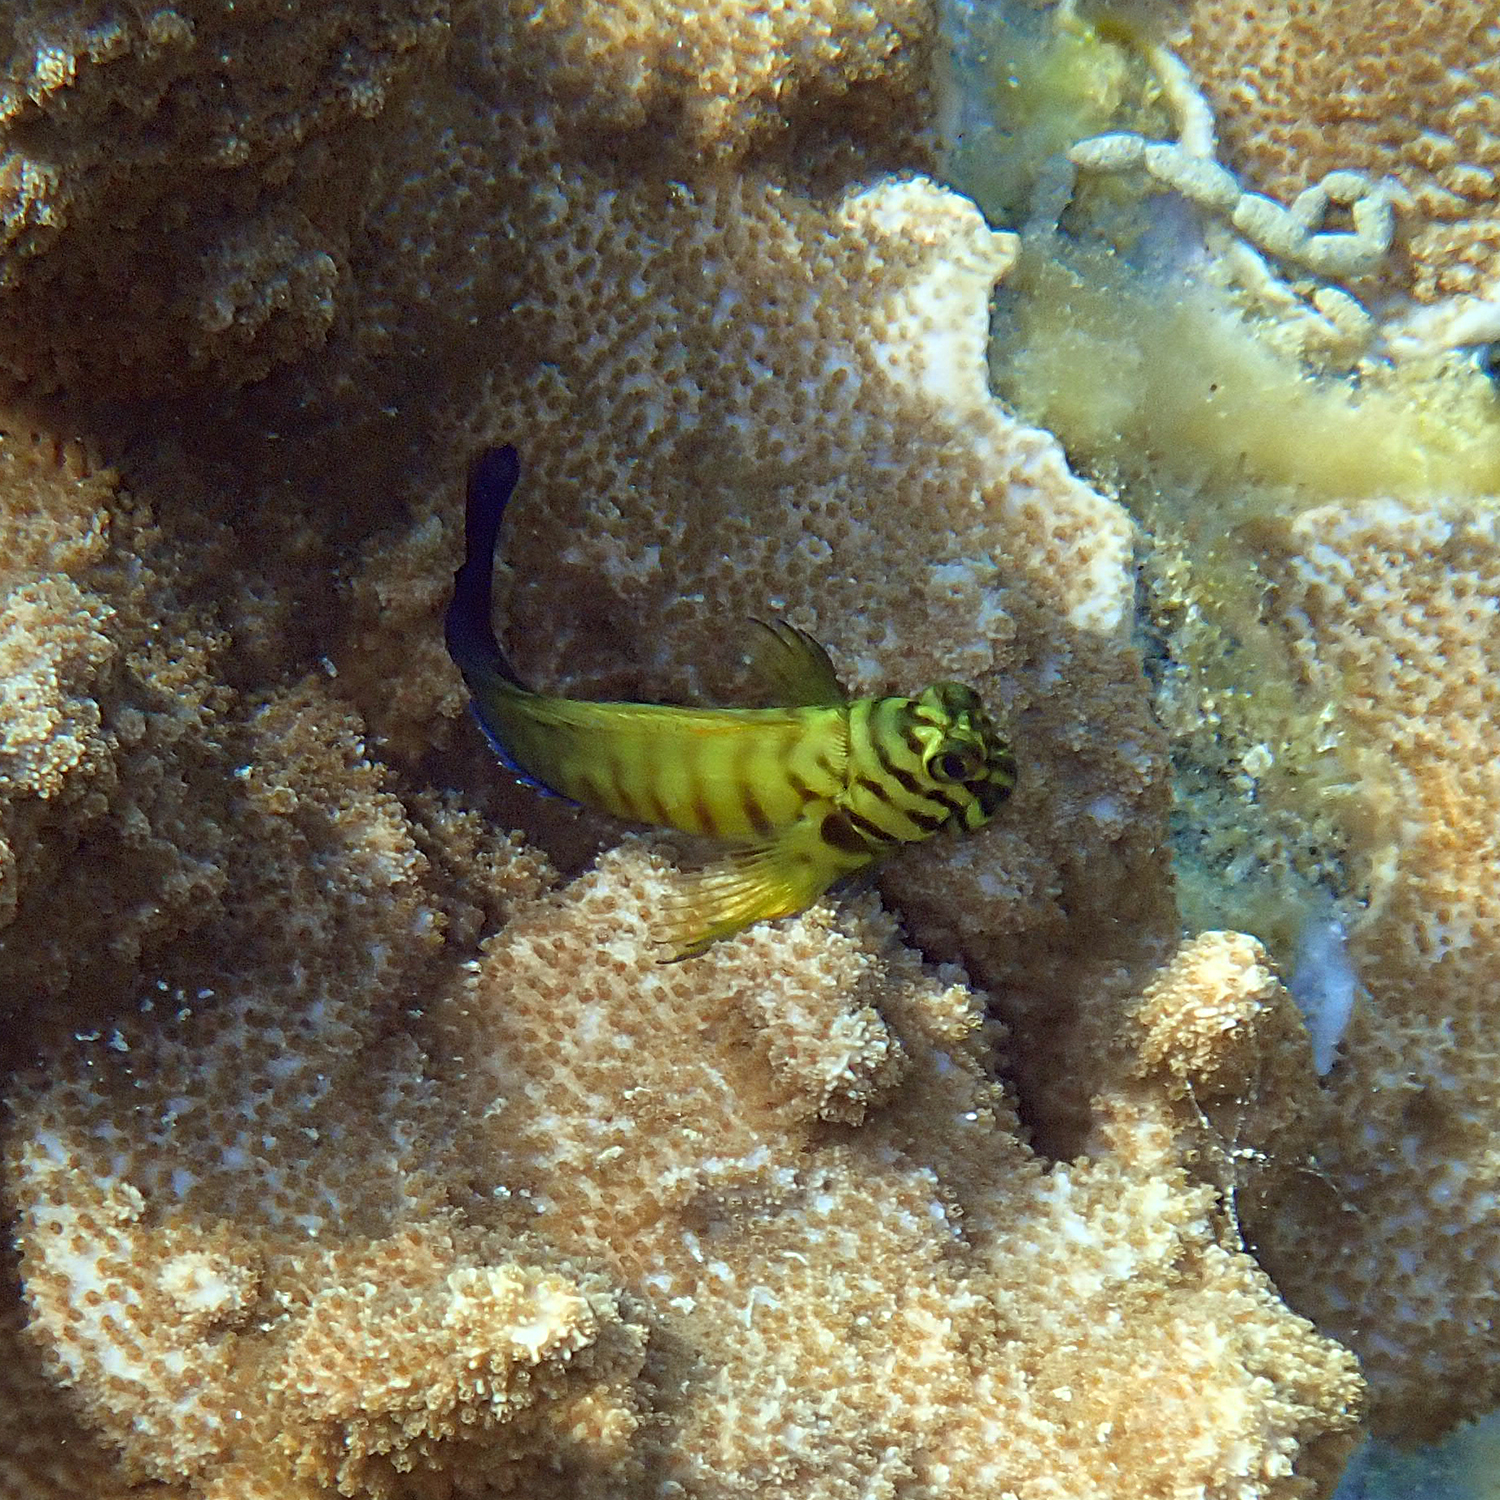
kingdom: Animalia
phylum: Chordata
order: Perciformes
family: Blenniidae
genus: Cirripectes
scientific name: Cirripectes castaneus
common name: Chestnut blenny
